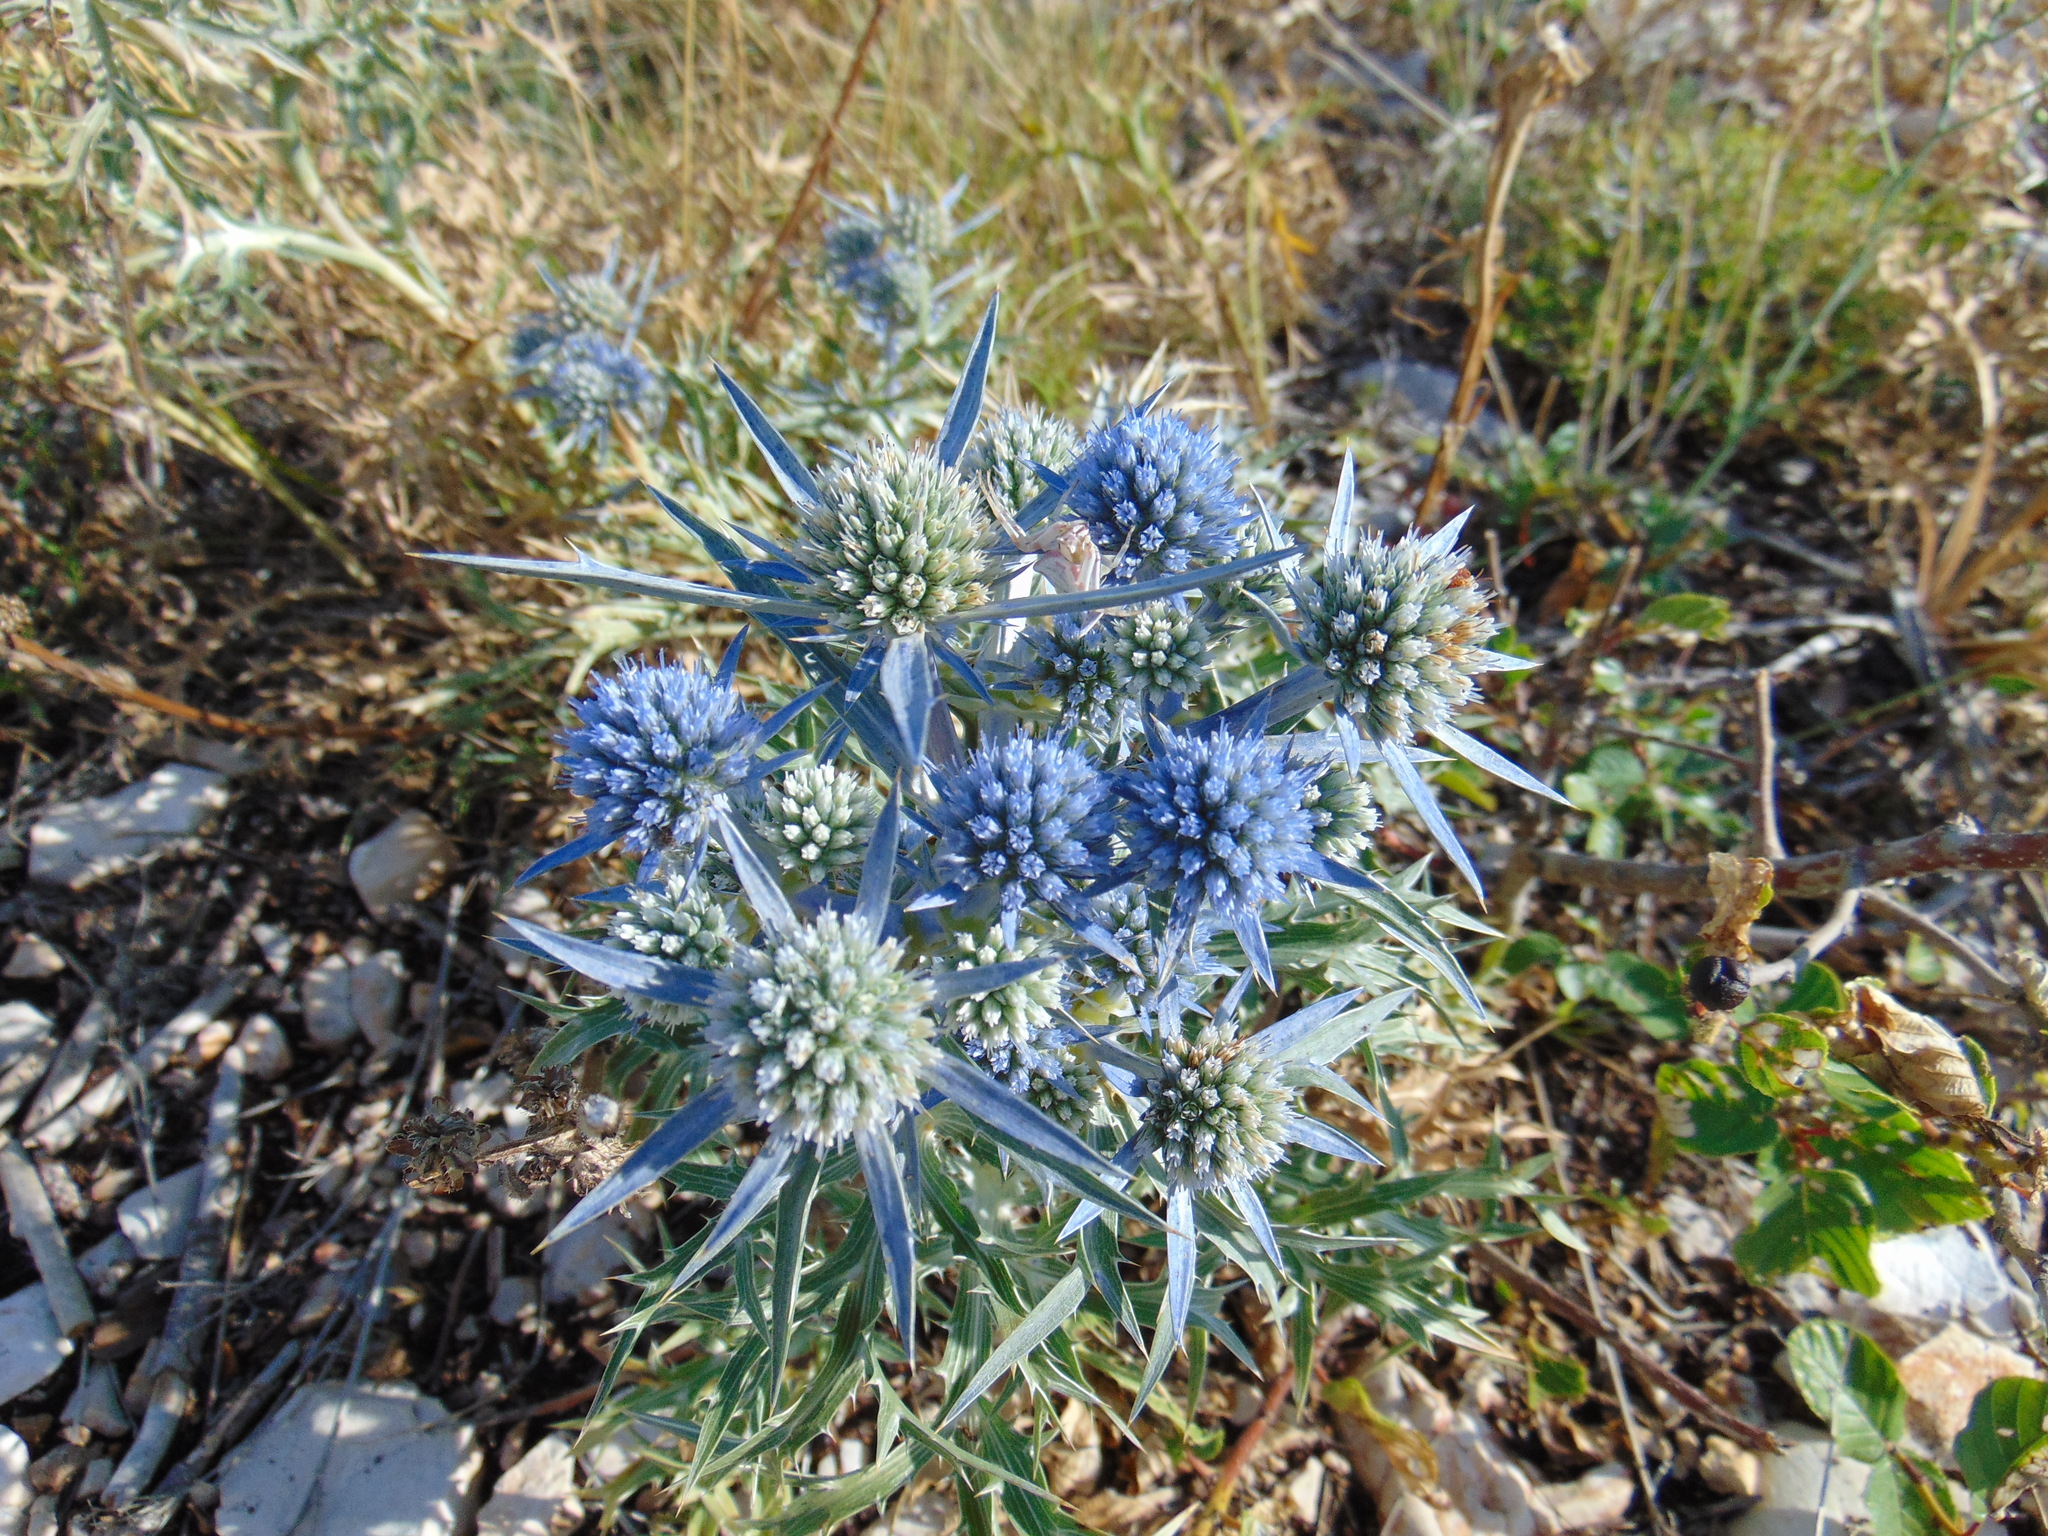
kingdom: Plantae
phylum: Tracheophyta
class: Magnoliopsida
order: Apiales
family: Apiaceae
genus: Eryngium
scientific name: Eryngium amethystinum
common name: Amethyst eryngo
